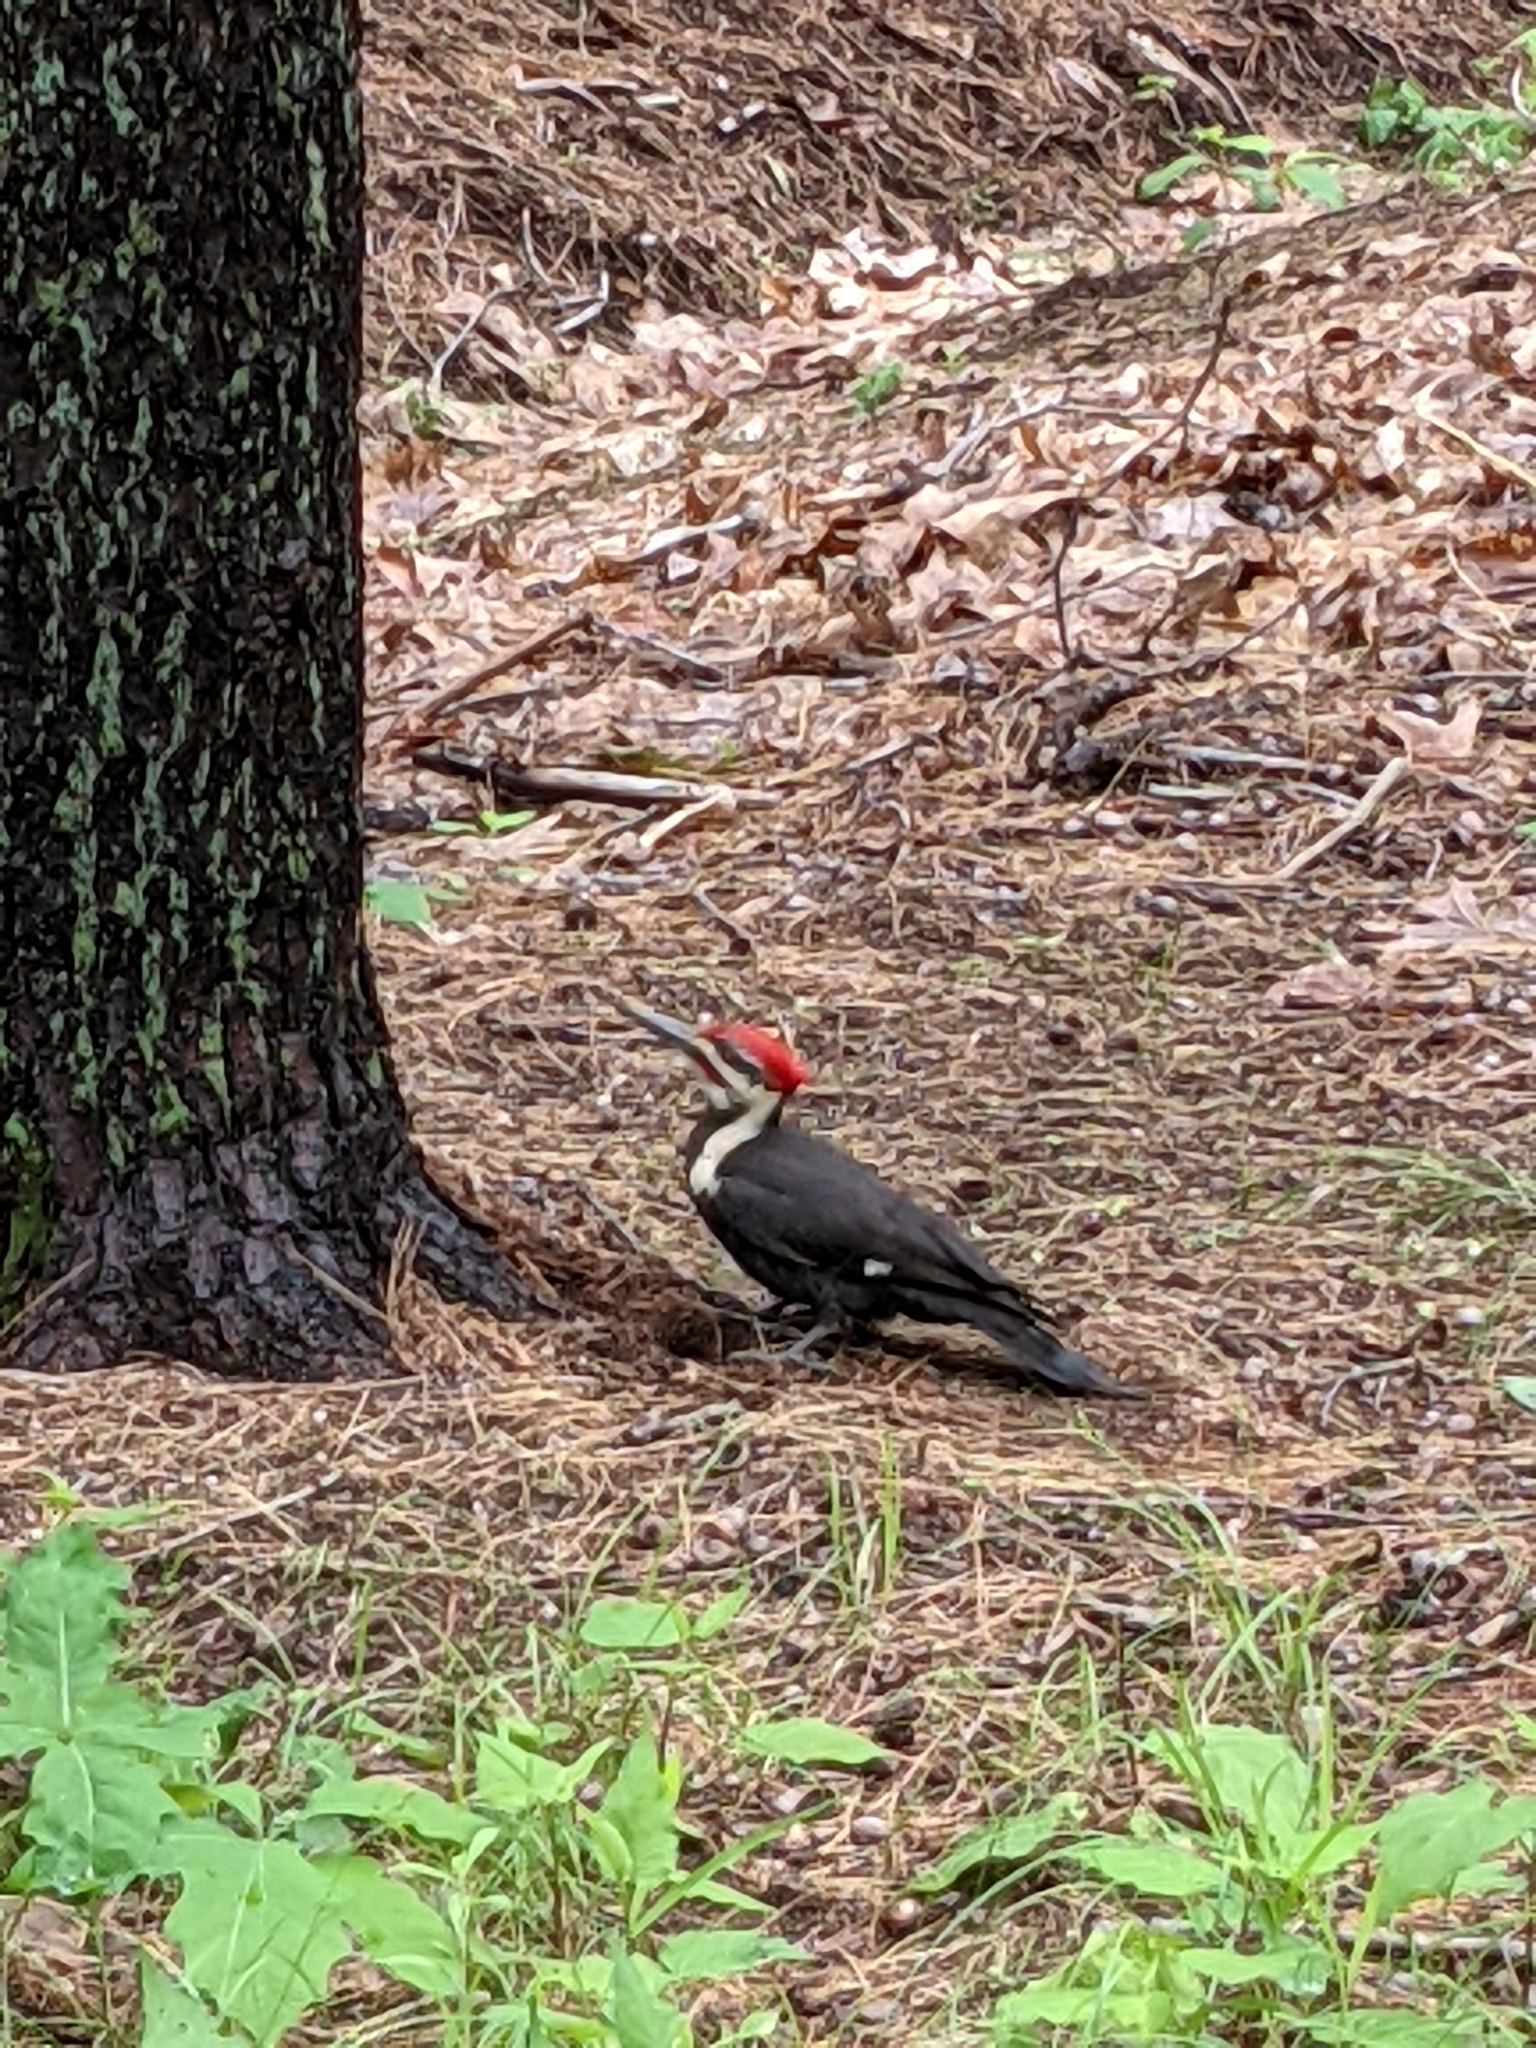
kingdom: Animalia
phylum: Chordata
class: Aves
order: Piciformes
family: Picidae
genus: Dryocopus
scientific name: Dryocopus pileatus
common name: Pileated woodpecker
